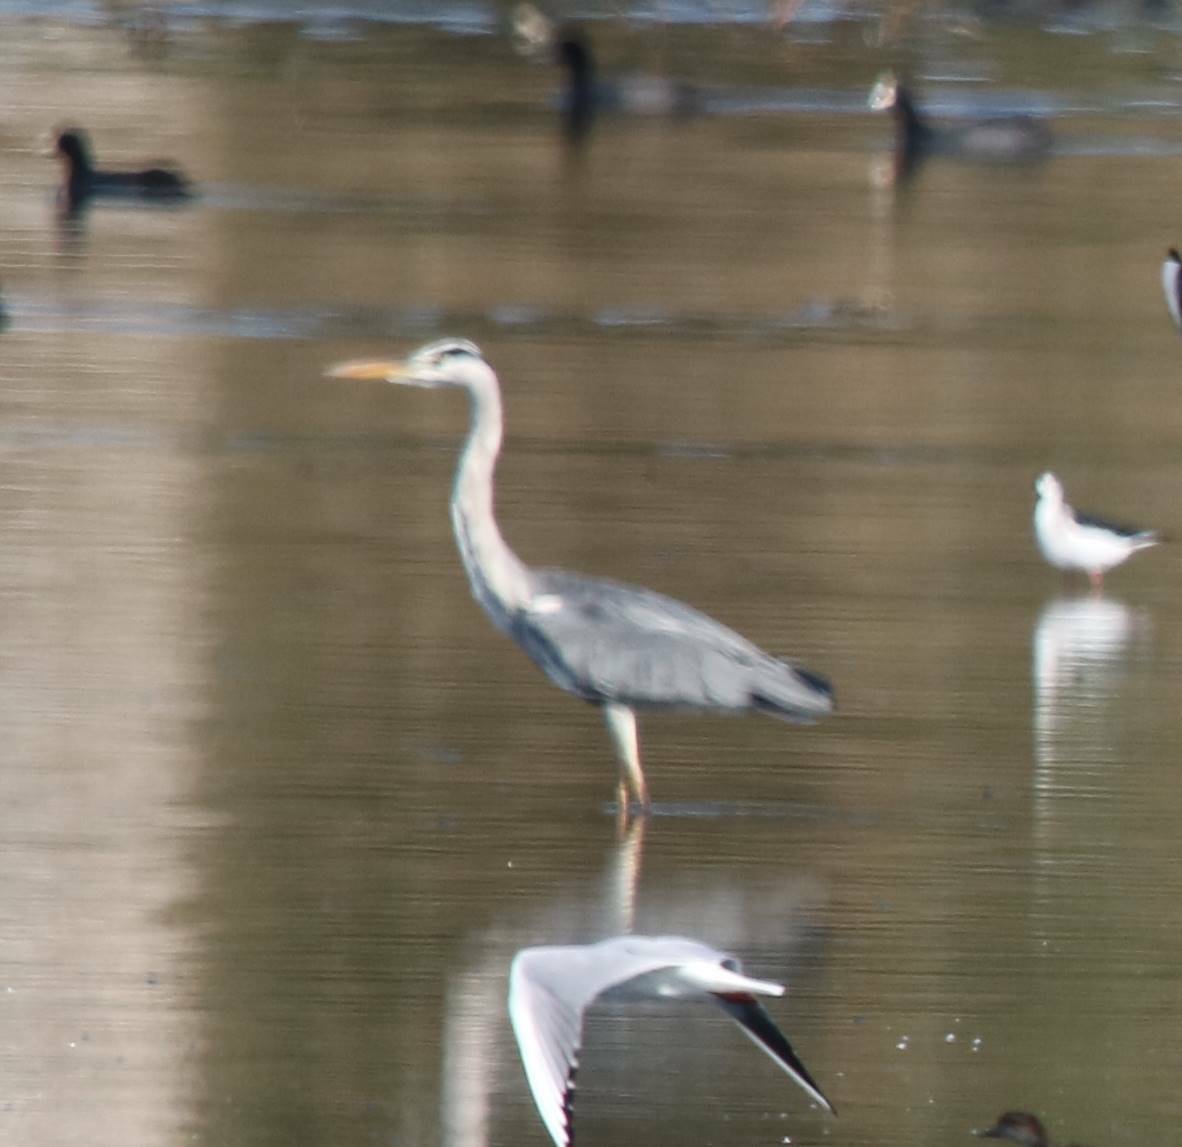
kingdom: Animalia
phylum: Chordata
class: Aves
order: Pelecaniformes
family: Ardeidae
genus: Ardea
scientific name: Ardea cinerea
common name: Grey heron
